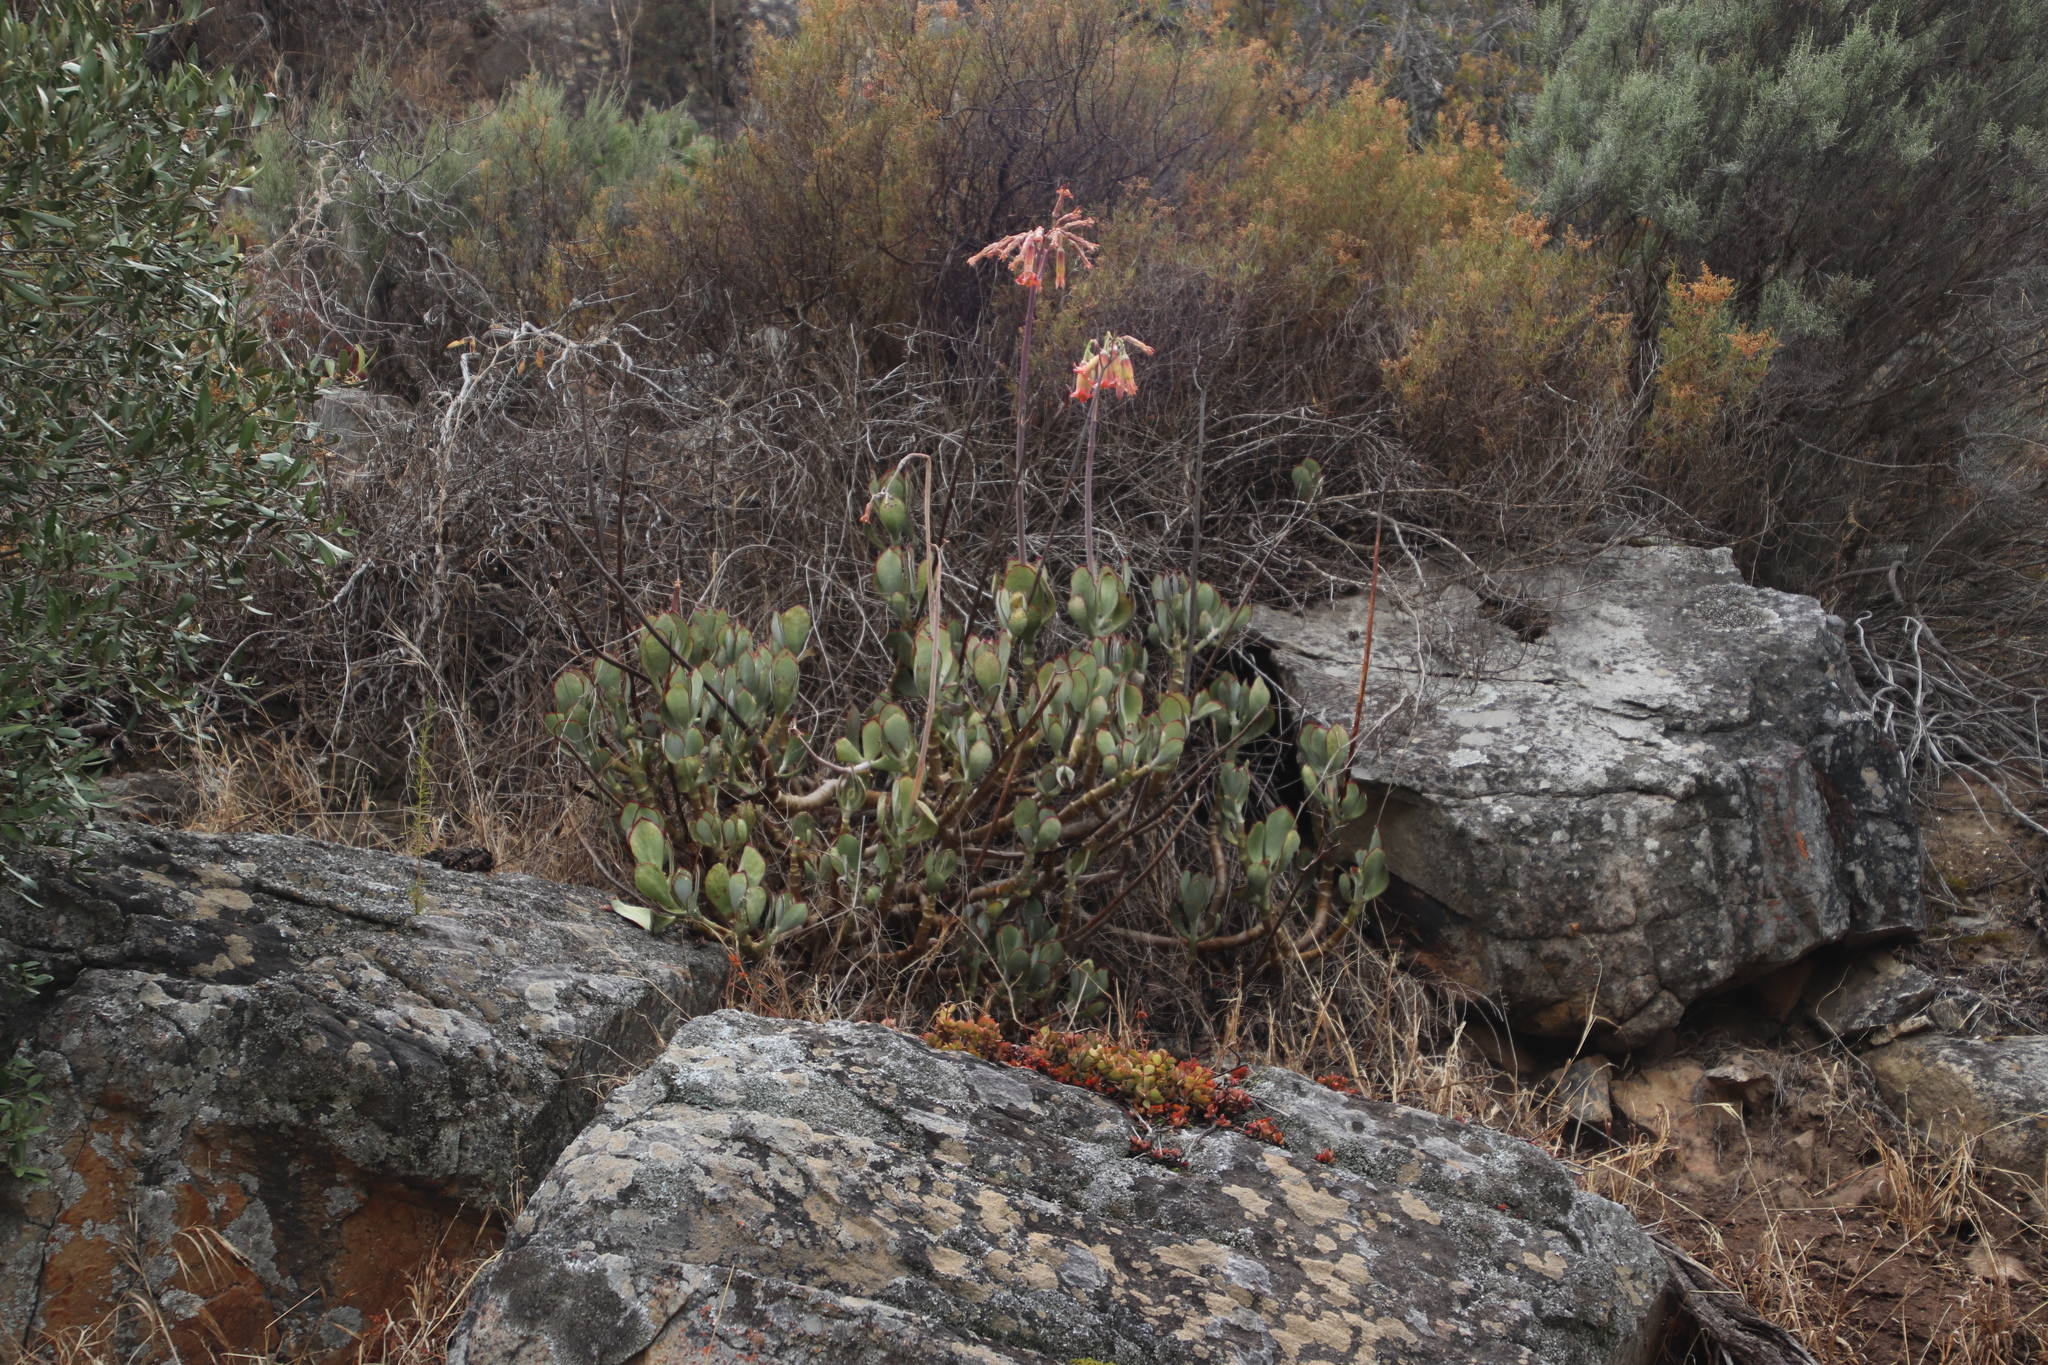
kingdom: Plantae
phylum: Tracheophyta
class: Magnoliopsida
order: Saxifragales
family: Crassulaceae
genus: Cotyledon
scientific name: Cotyledon orbiculata
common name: Pig's ear
